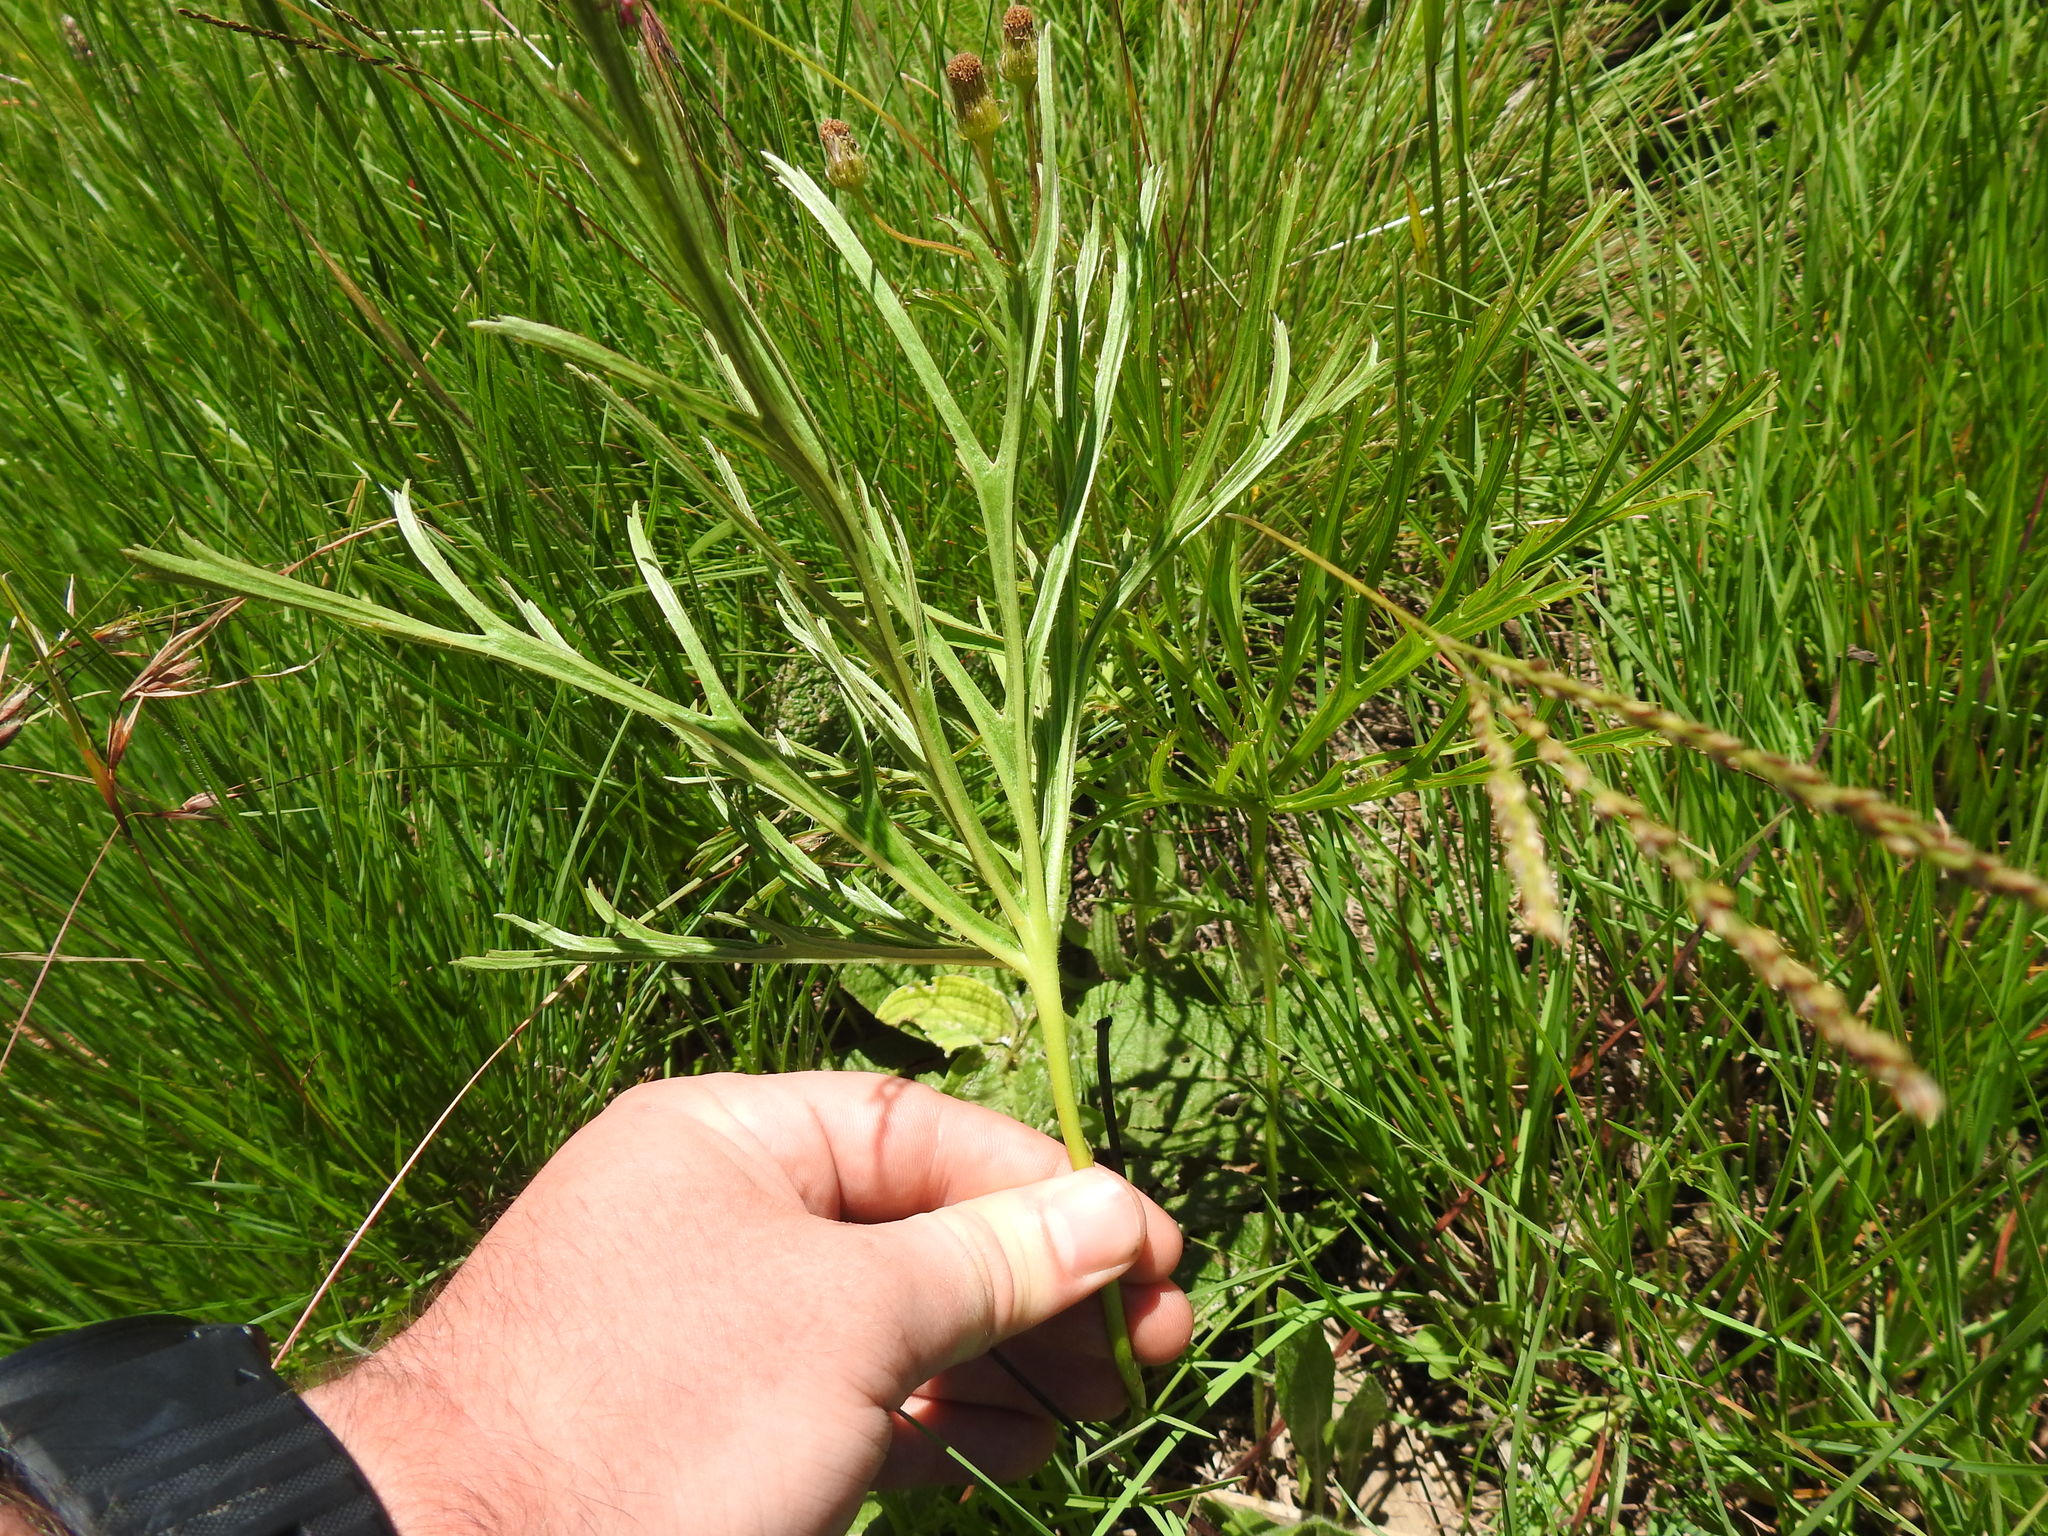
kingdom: Plantae
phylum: Tracheophyta
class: Magnoliopsida
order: Geraniales
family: Geraniaceae
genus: Pelargonium
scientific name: Pelargonium luridum
